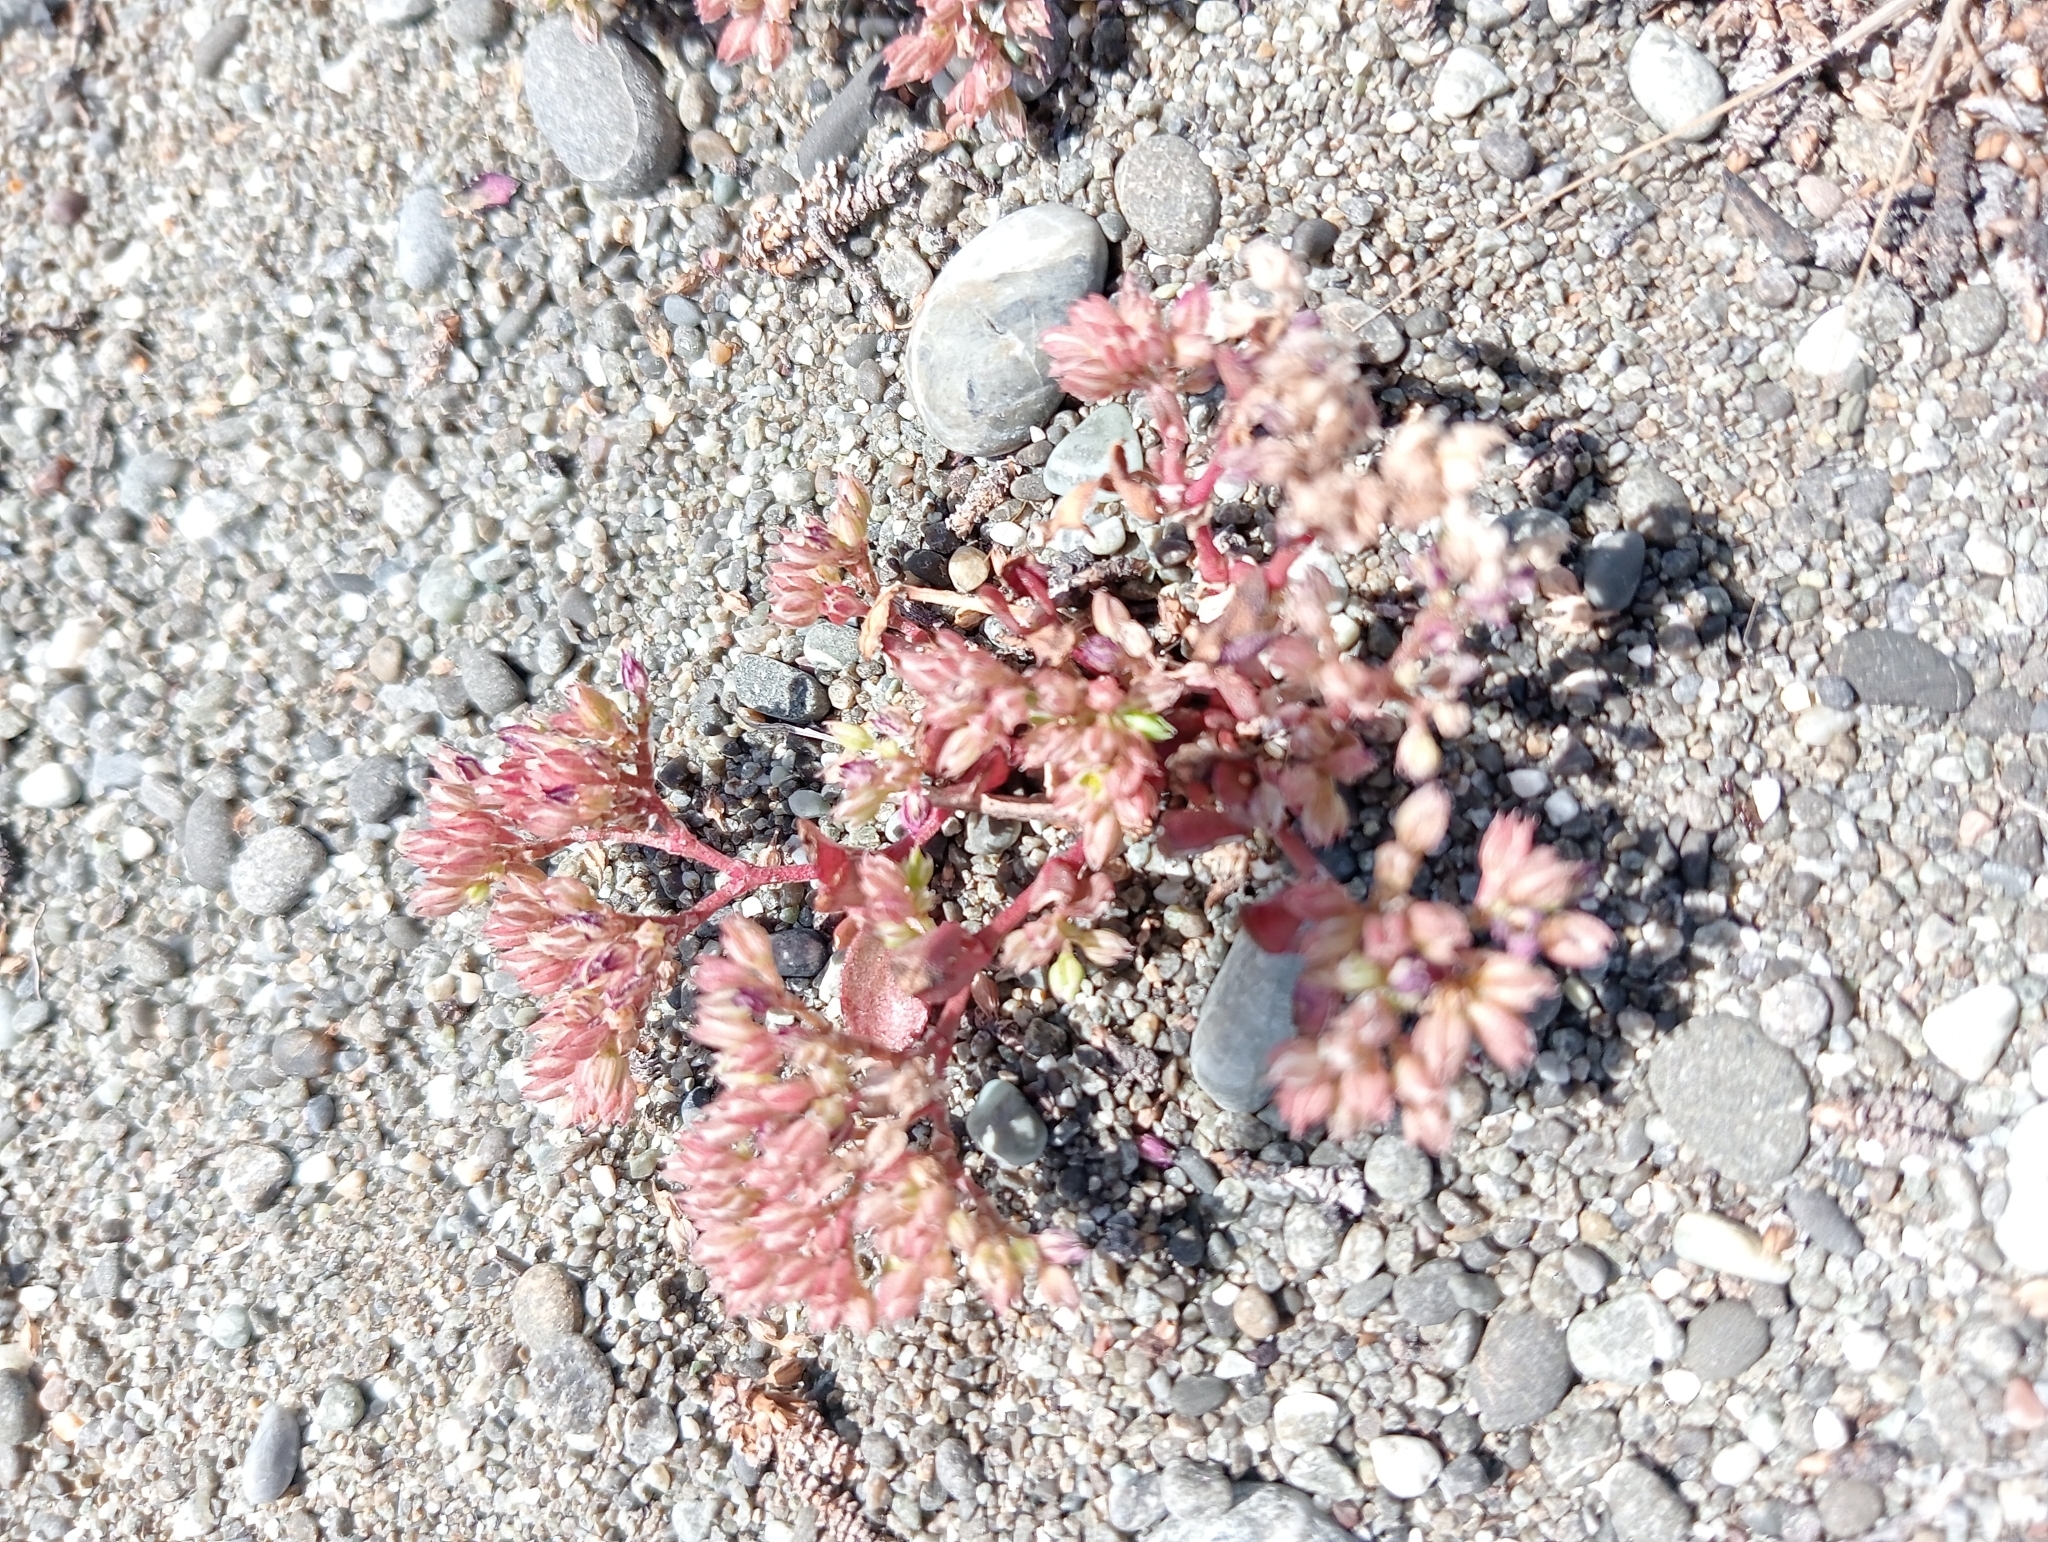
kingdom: Plantae
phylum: Tracheophyta
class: Magnoliopsida
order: Caryophyllales
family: Caryophyllaceae
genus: Polycarpon
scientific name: Polycarpon tetraphyllum
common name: Four-leaved all-seed
